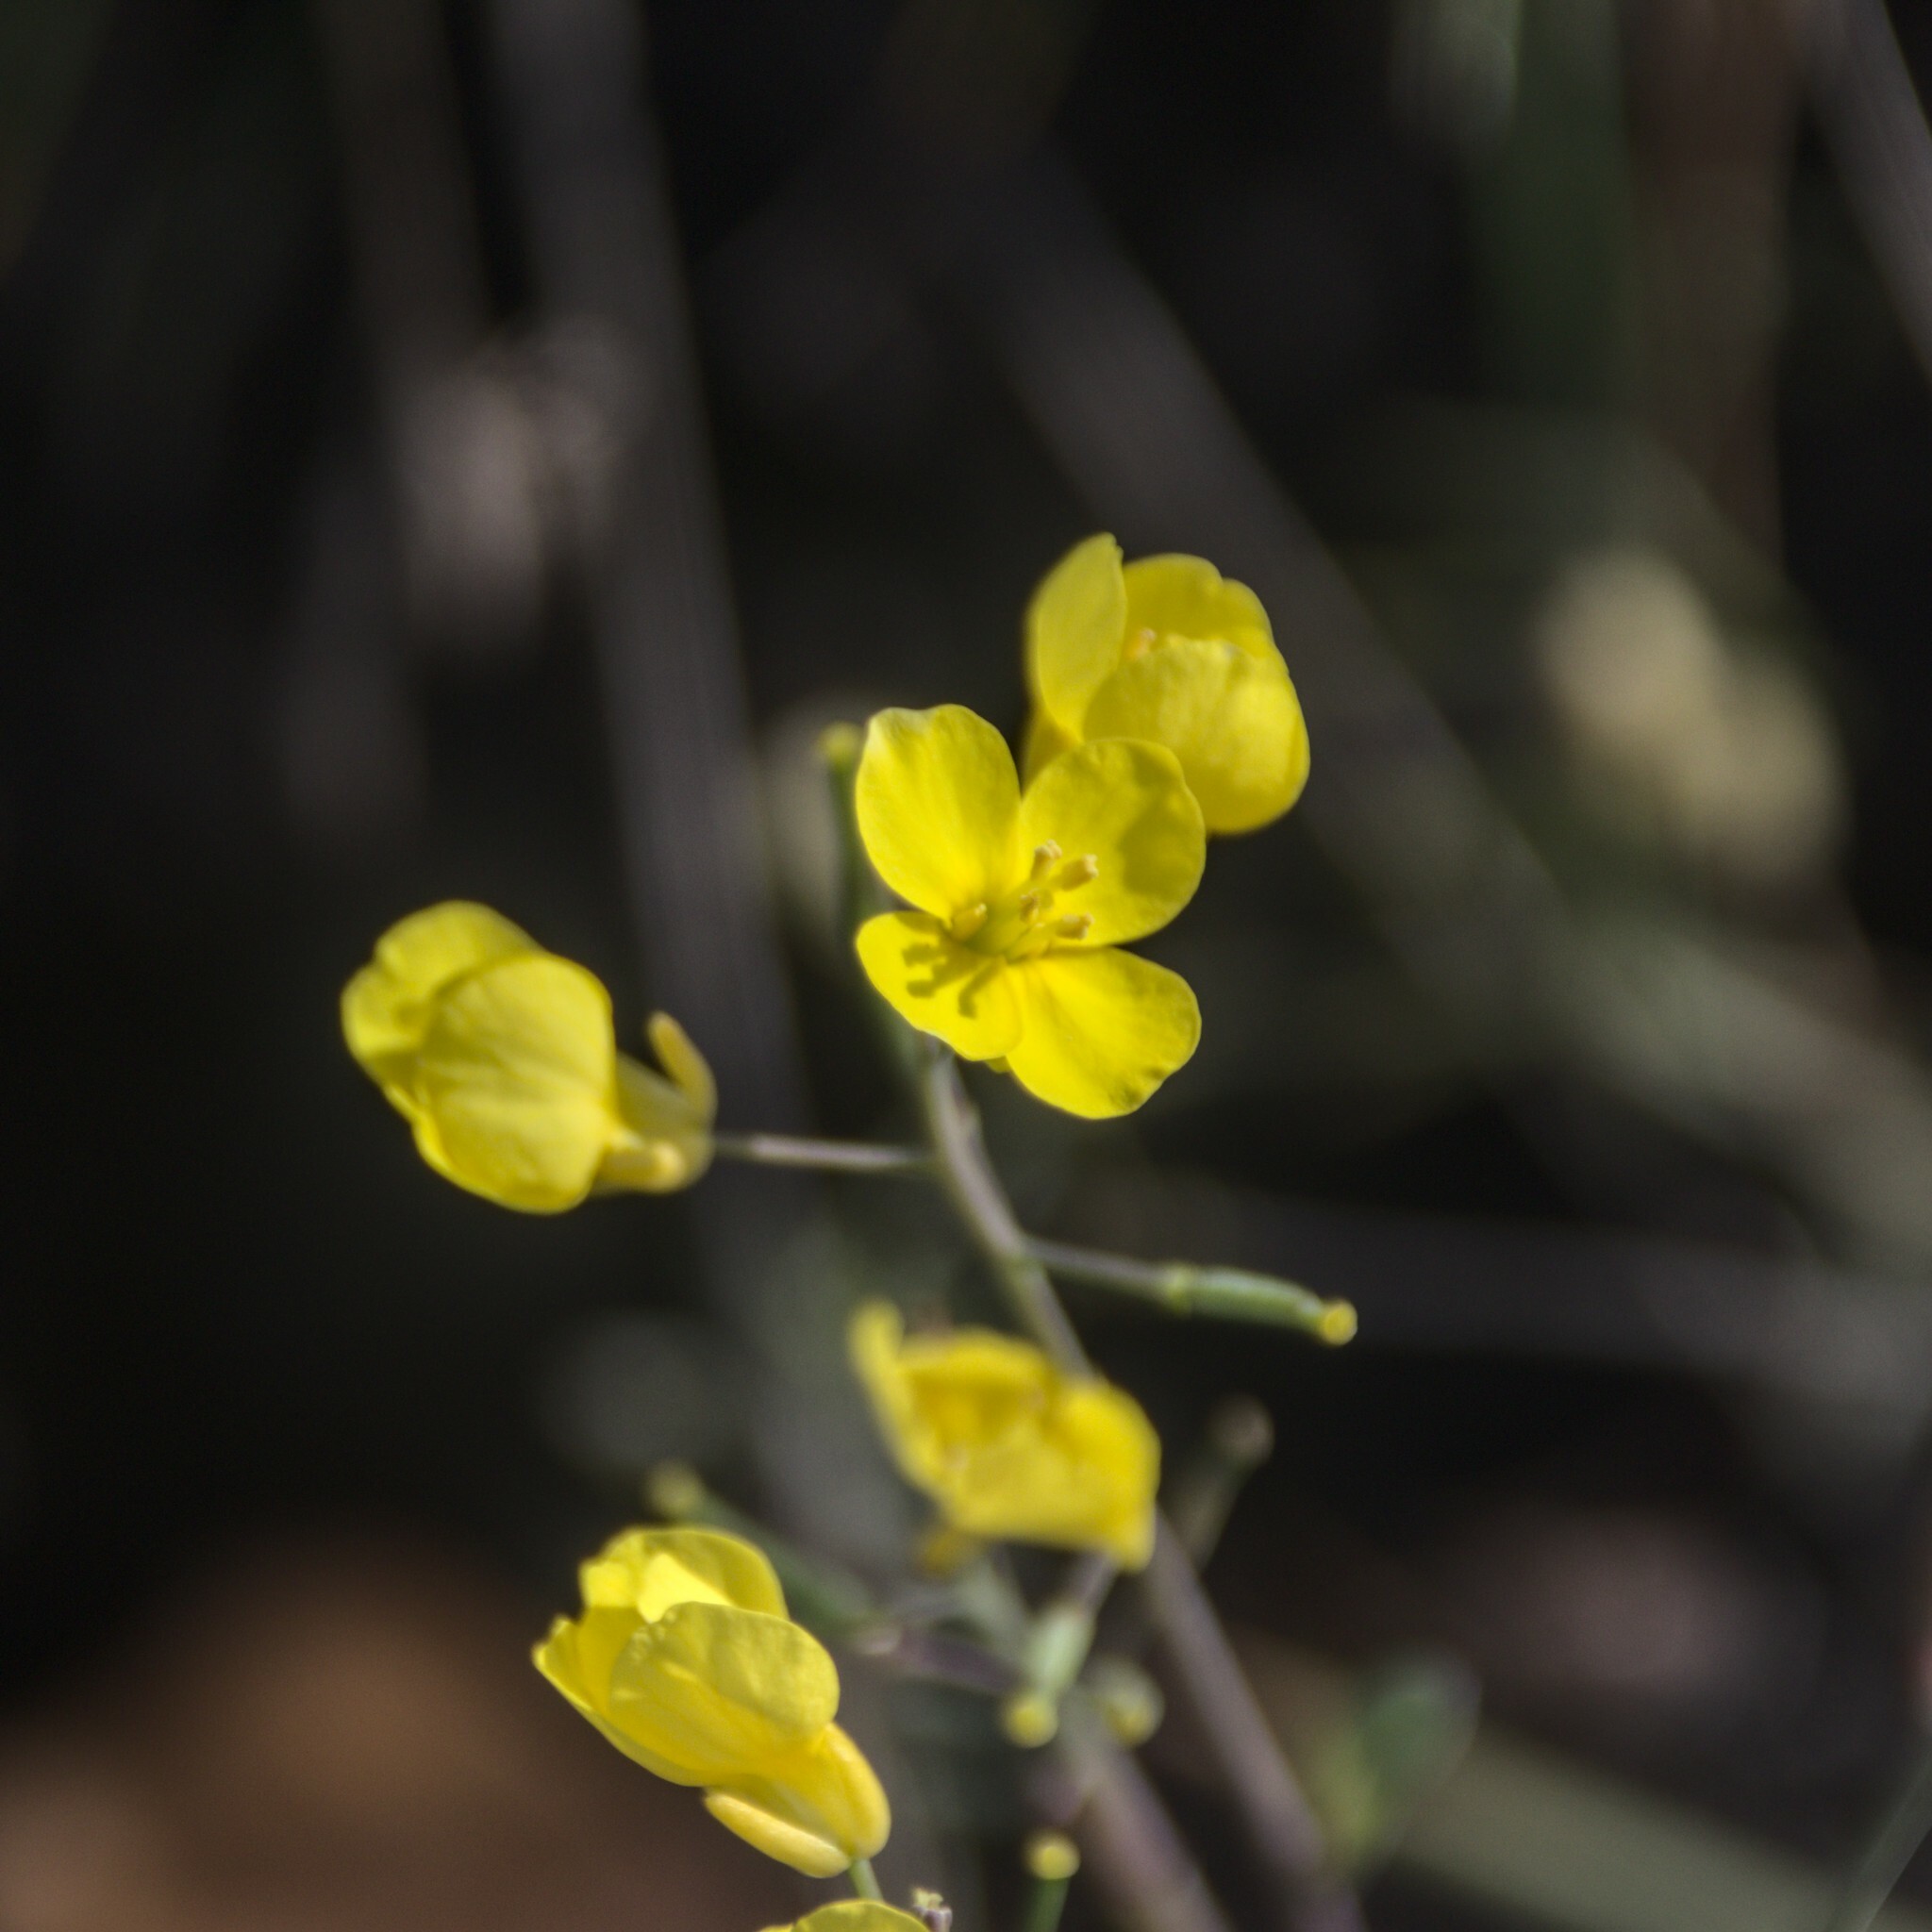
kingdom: Plantae
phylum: Tracheophyta
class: Magnoliopsida
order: Brassicales
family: Brassicaceae
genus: Brassica
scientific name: Brassica rapa
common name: Field mustard
